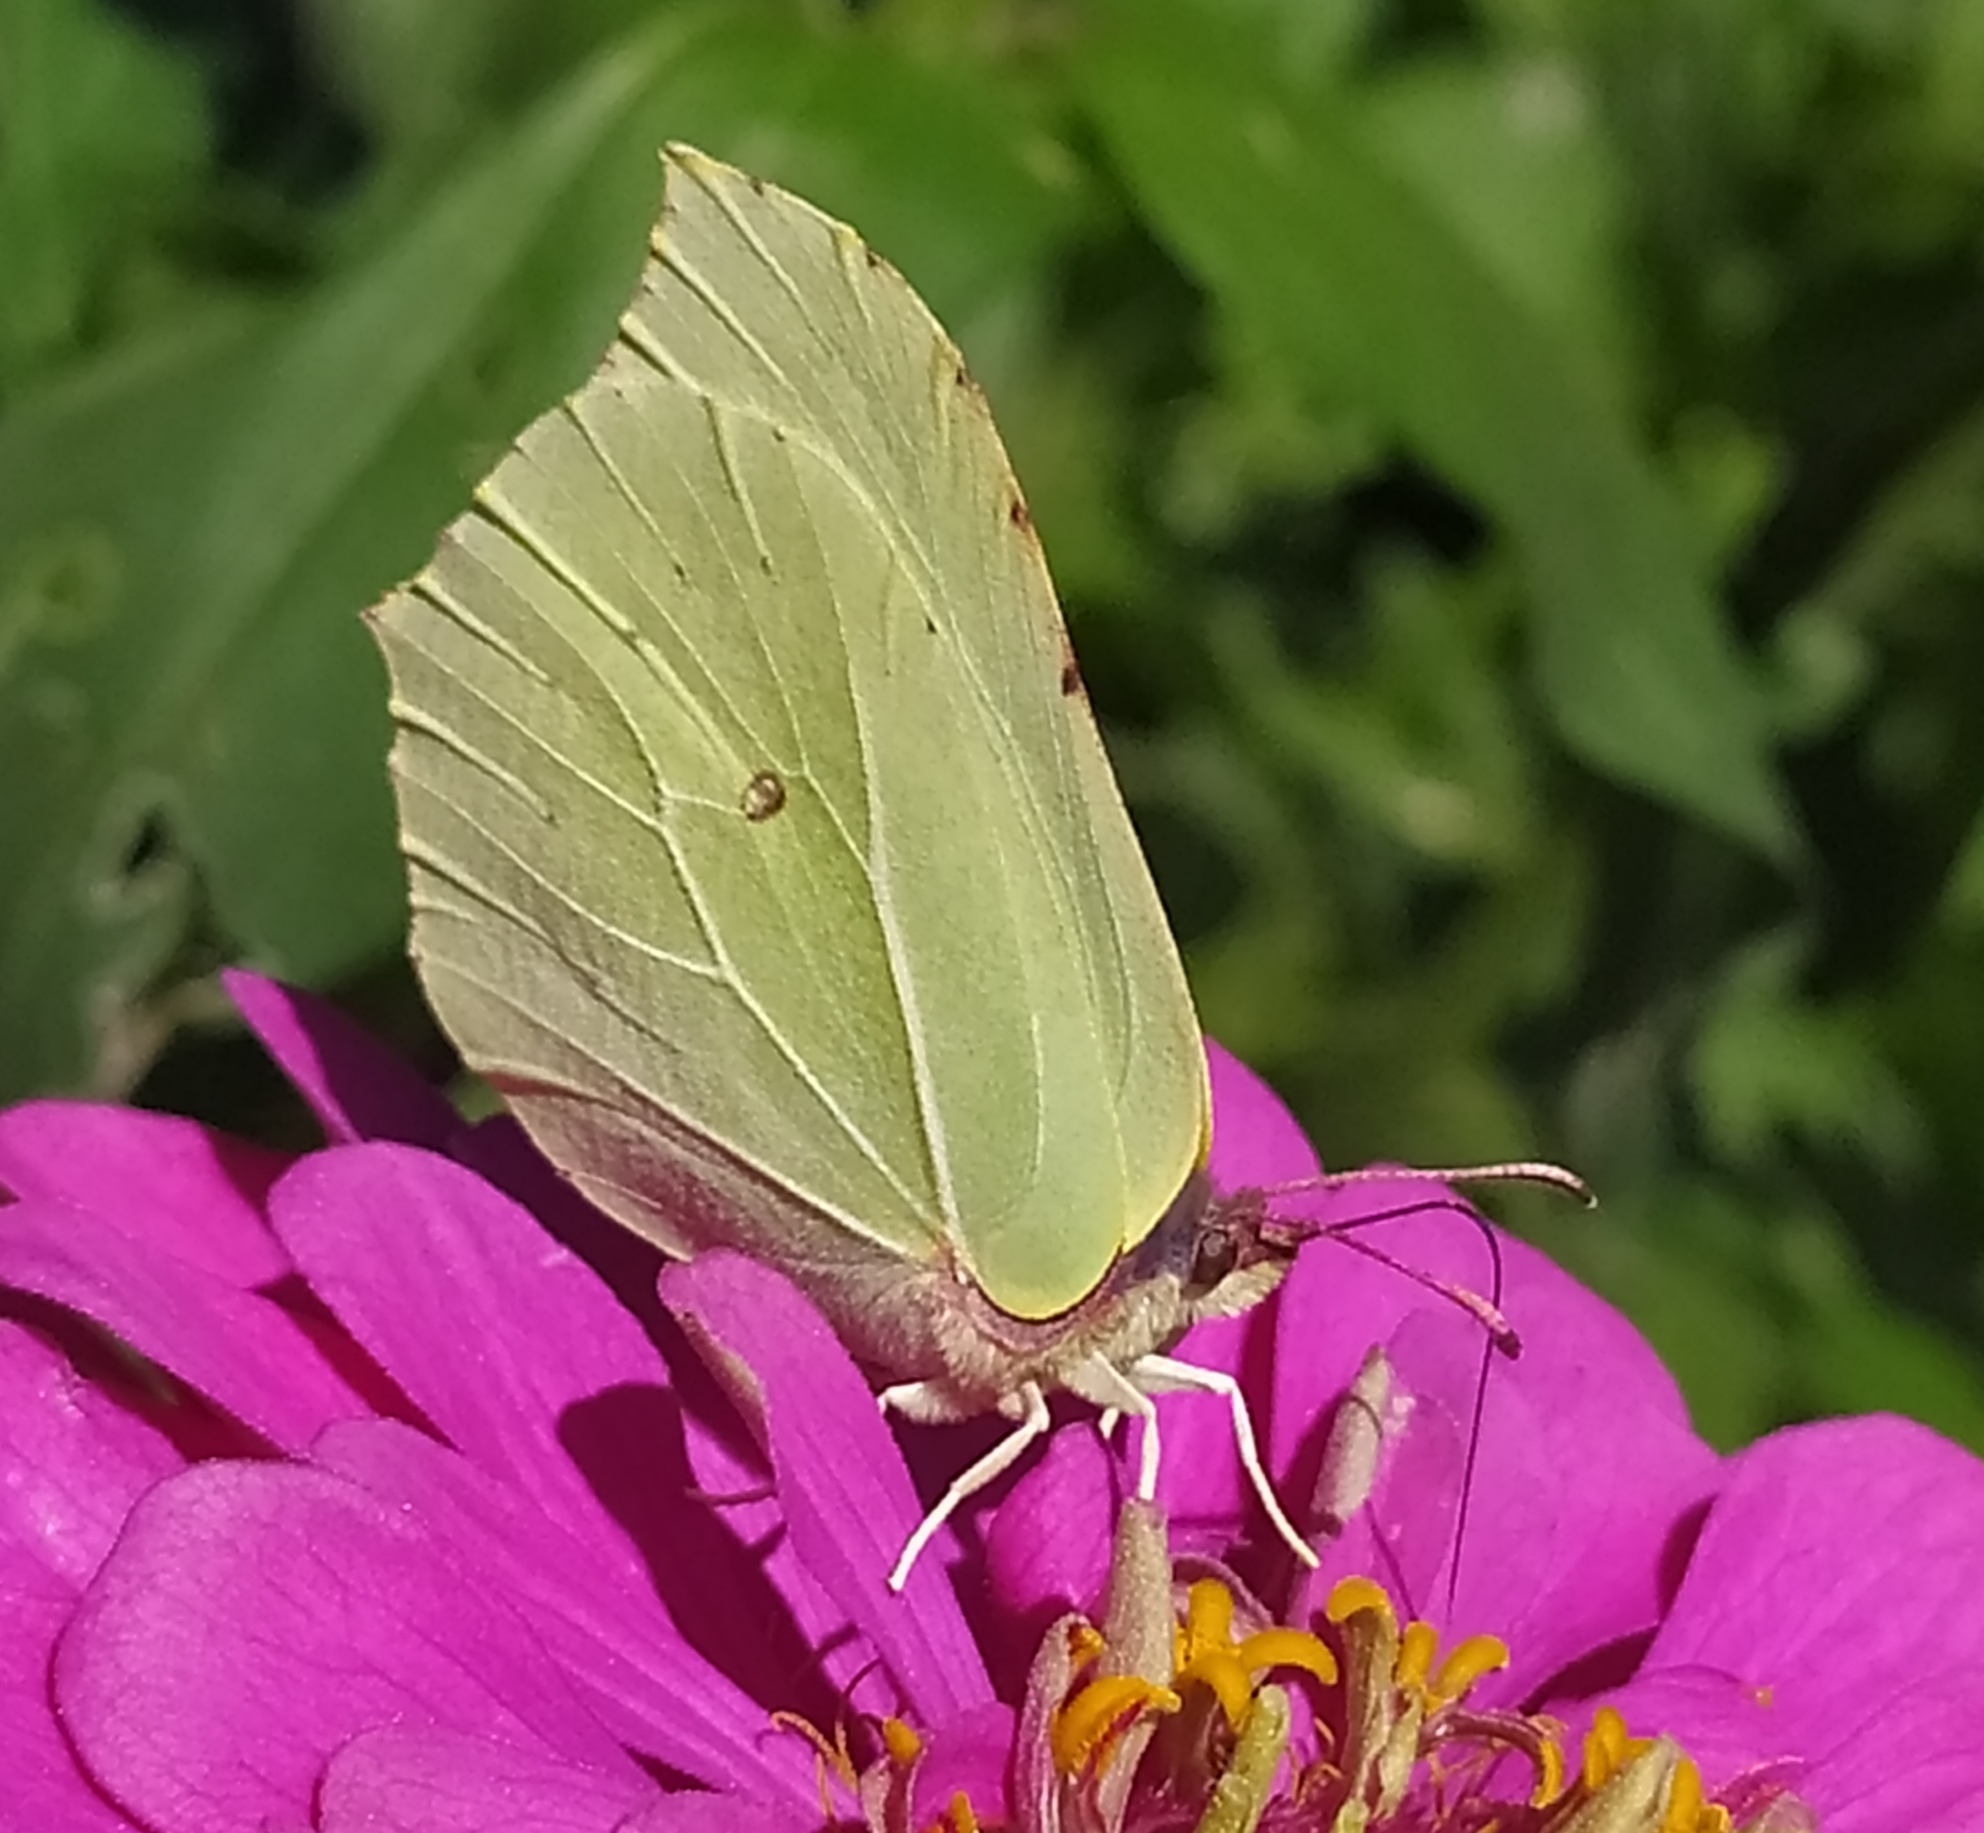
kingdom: Animalia
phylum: Arthropoda
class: Insecta
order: Lepidoptera
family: Pieridae
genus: Gonepteryx
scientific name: Gonepteryx rhamni
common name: Brimstone
